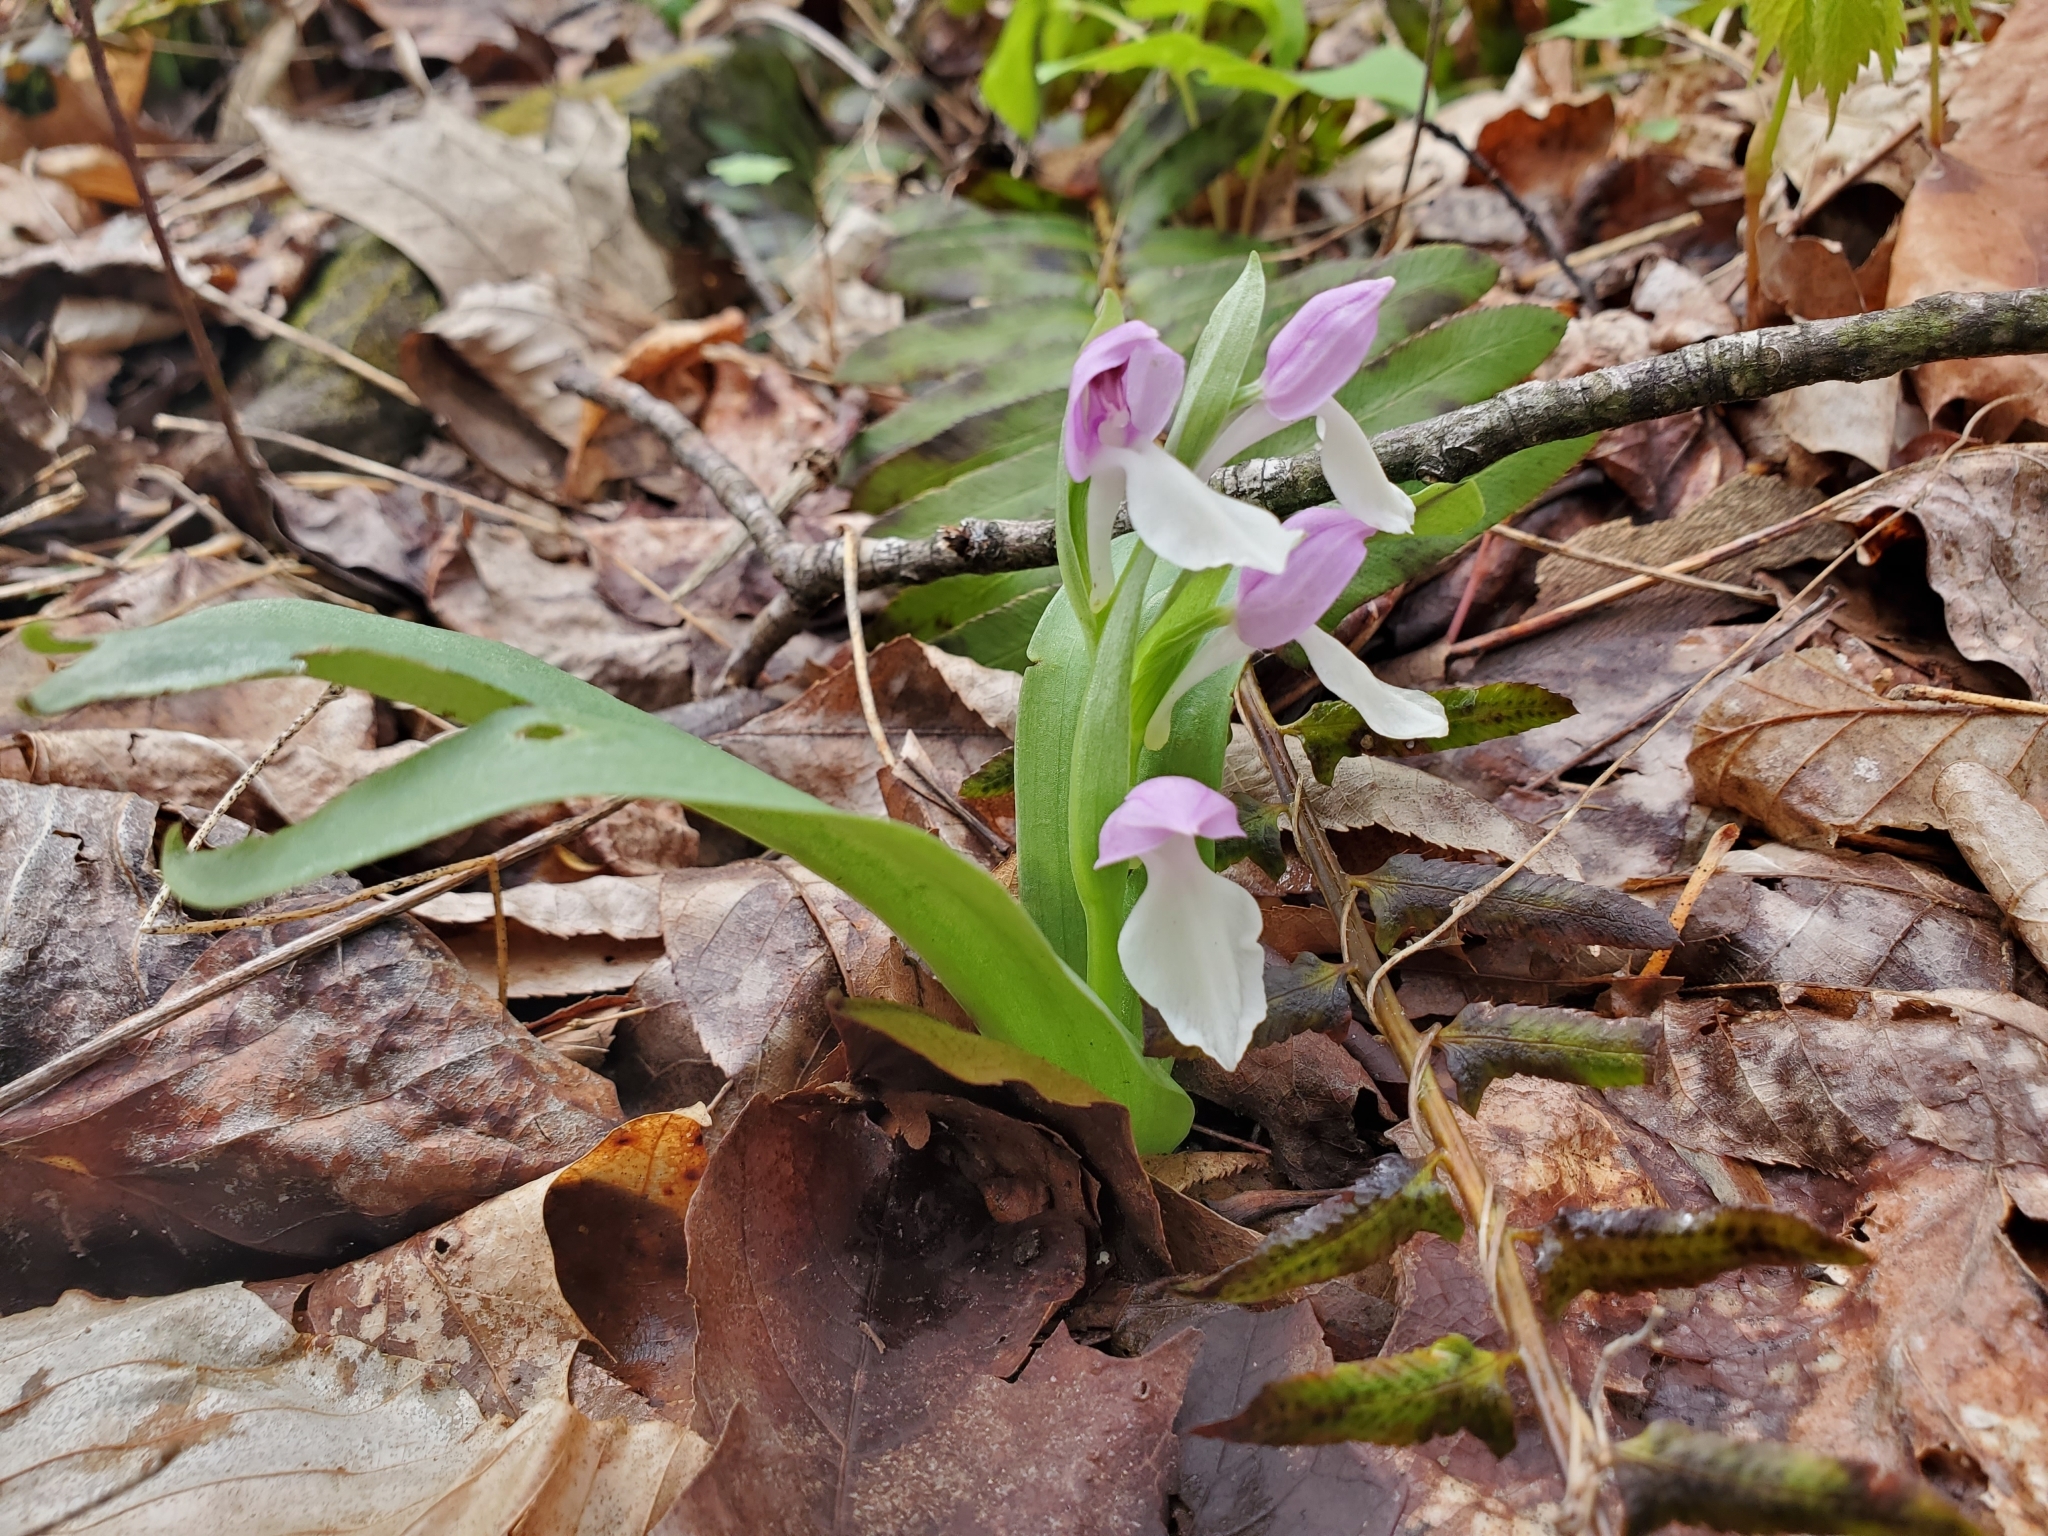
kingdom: Plantae
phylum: Tracheophyta
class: Liliopsida
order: Asparagales
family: Orchidaceae
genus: Galearis
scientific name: Galearis spectabilis
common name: Purple-hooded orchis
